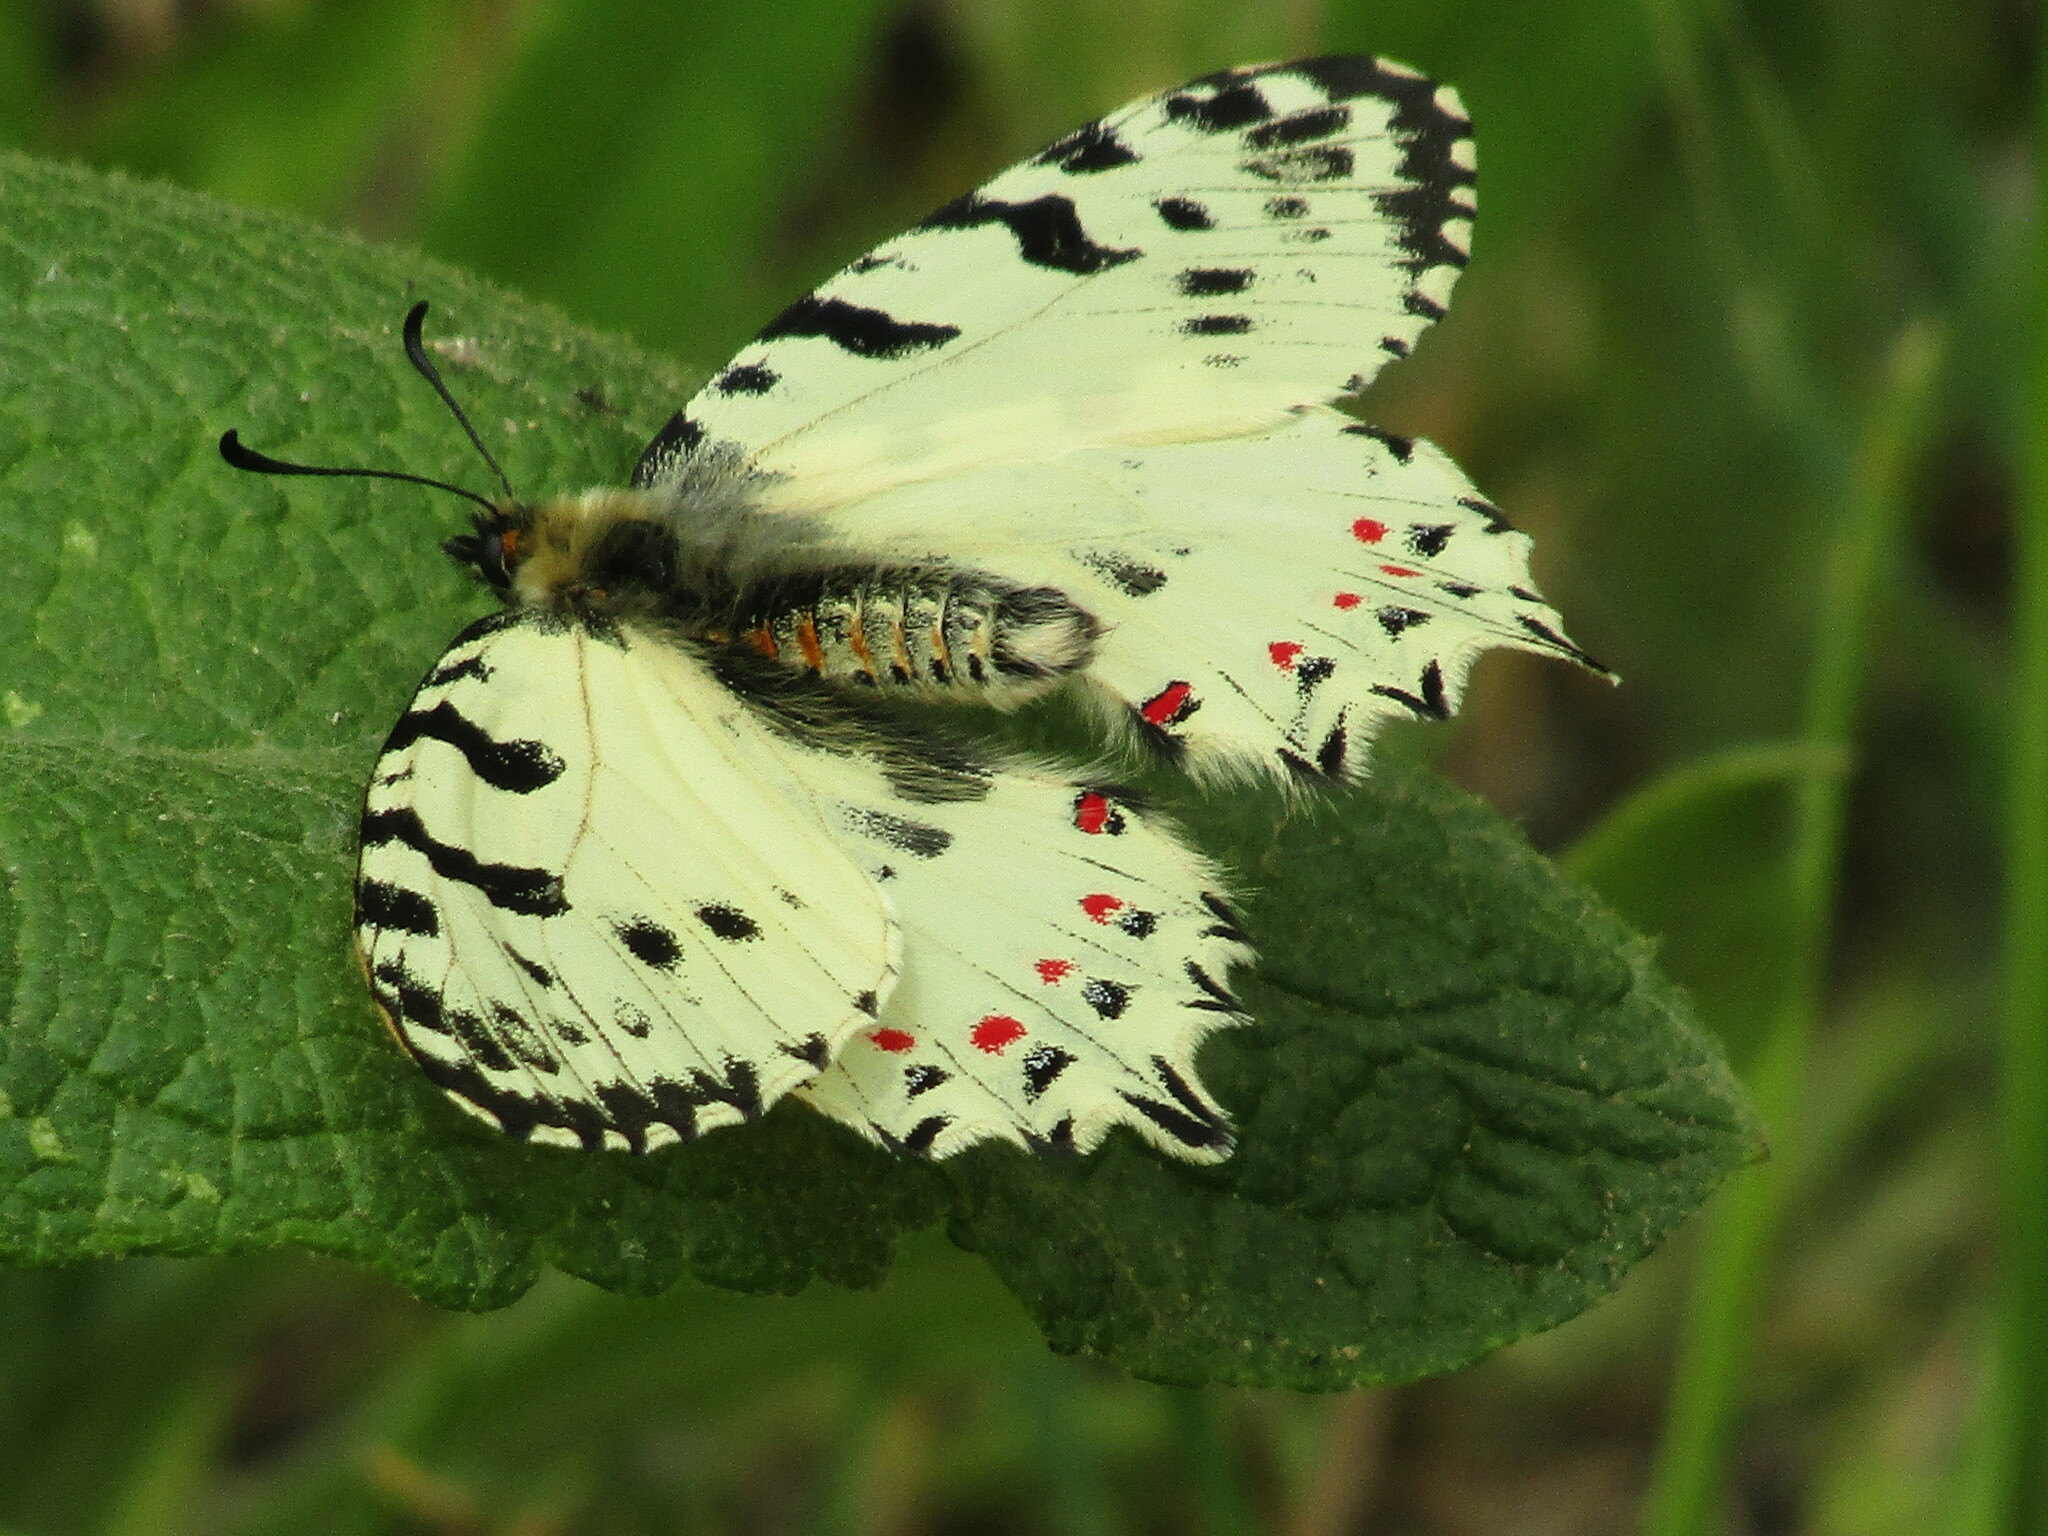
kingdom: Animalia
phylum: Arthropoda
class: Insecta
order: Lepidoptera
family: Papilionidae
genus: Zerynthia
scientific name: Zerynthia cerisy
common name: Eastern festoon
